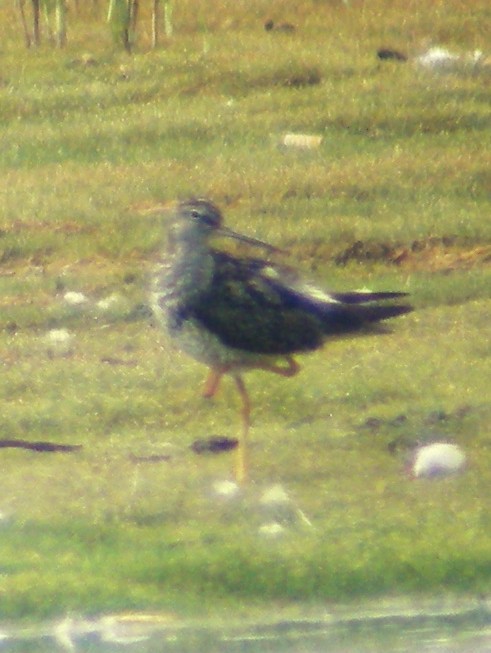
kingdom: Animalia
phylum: Chordata
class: Aves
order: Charadriiformes
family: Scolopacidae
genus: Tringa
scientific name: Tringa melanoleuca
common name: Greater yellowlegs
